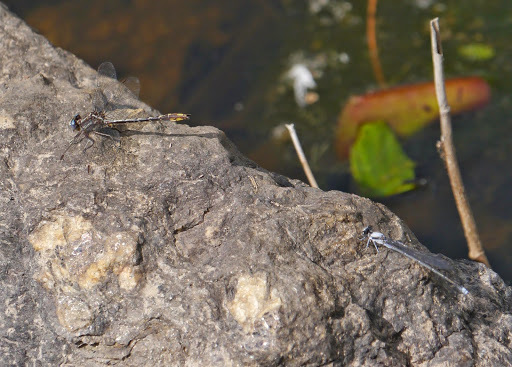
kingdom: Animalia
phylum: Arthropoda
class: Insecta
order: Odonata
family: Coenagrionidae
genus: Argia
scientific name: Argia moesta
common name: Powdered dancer
